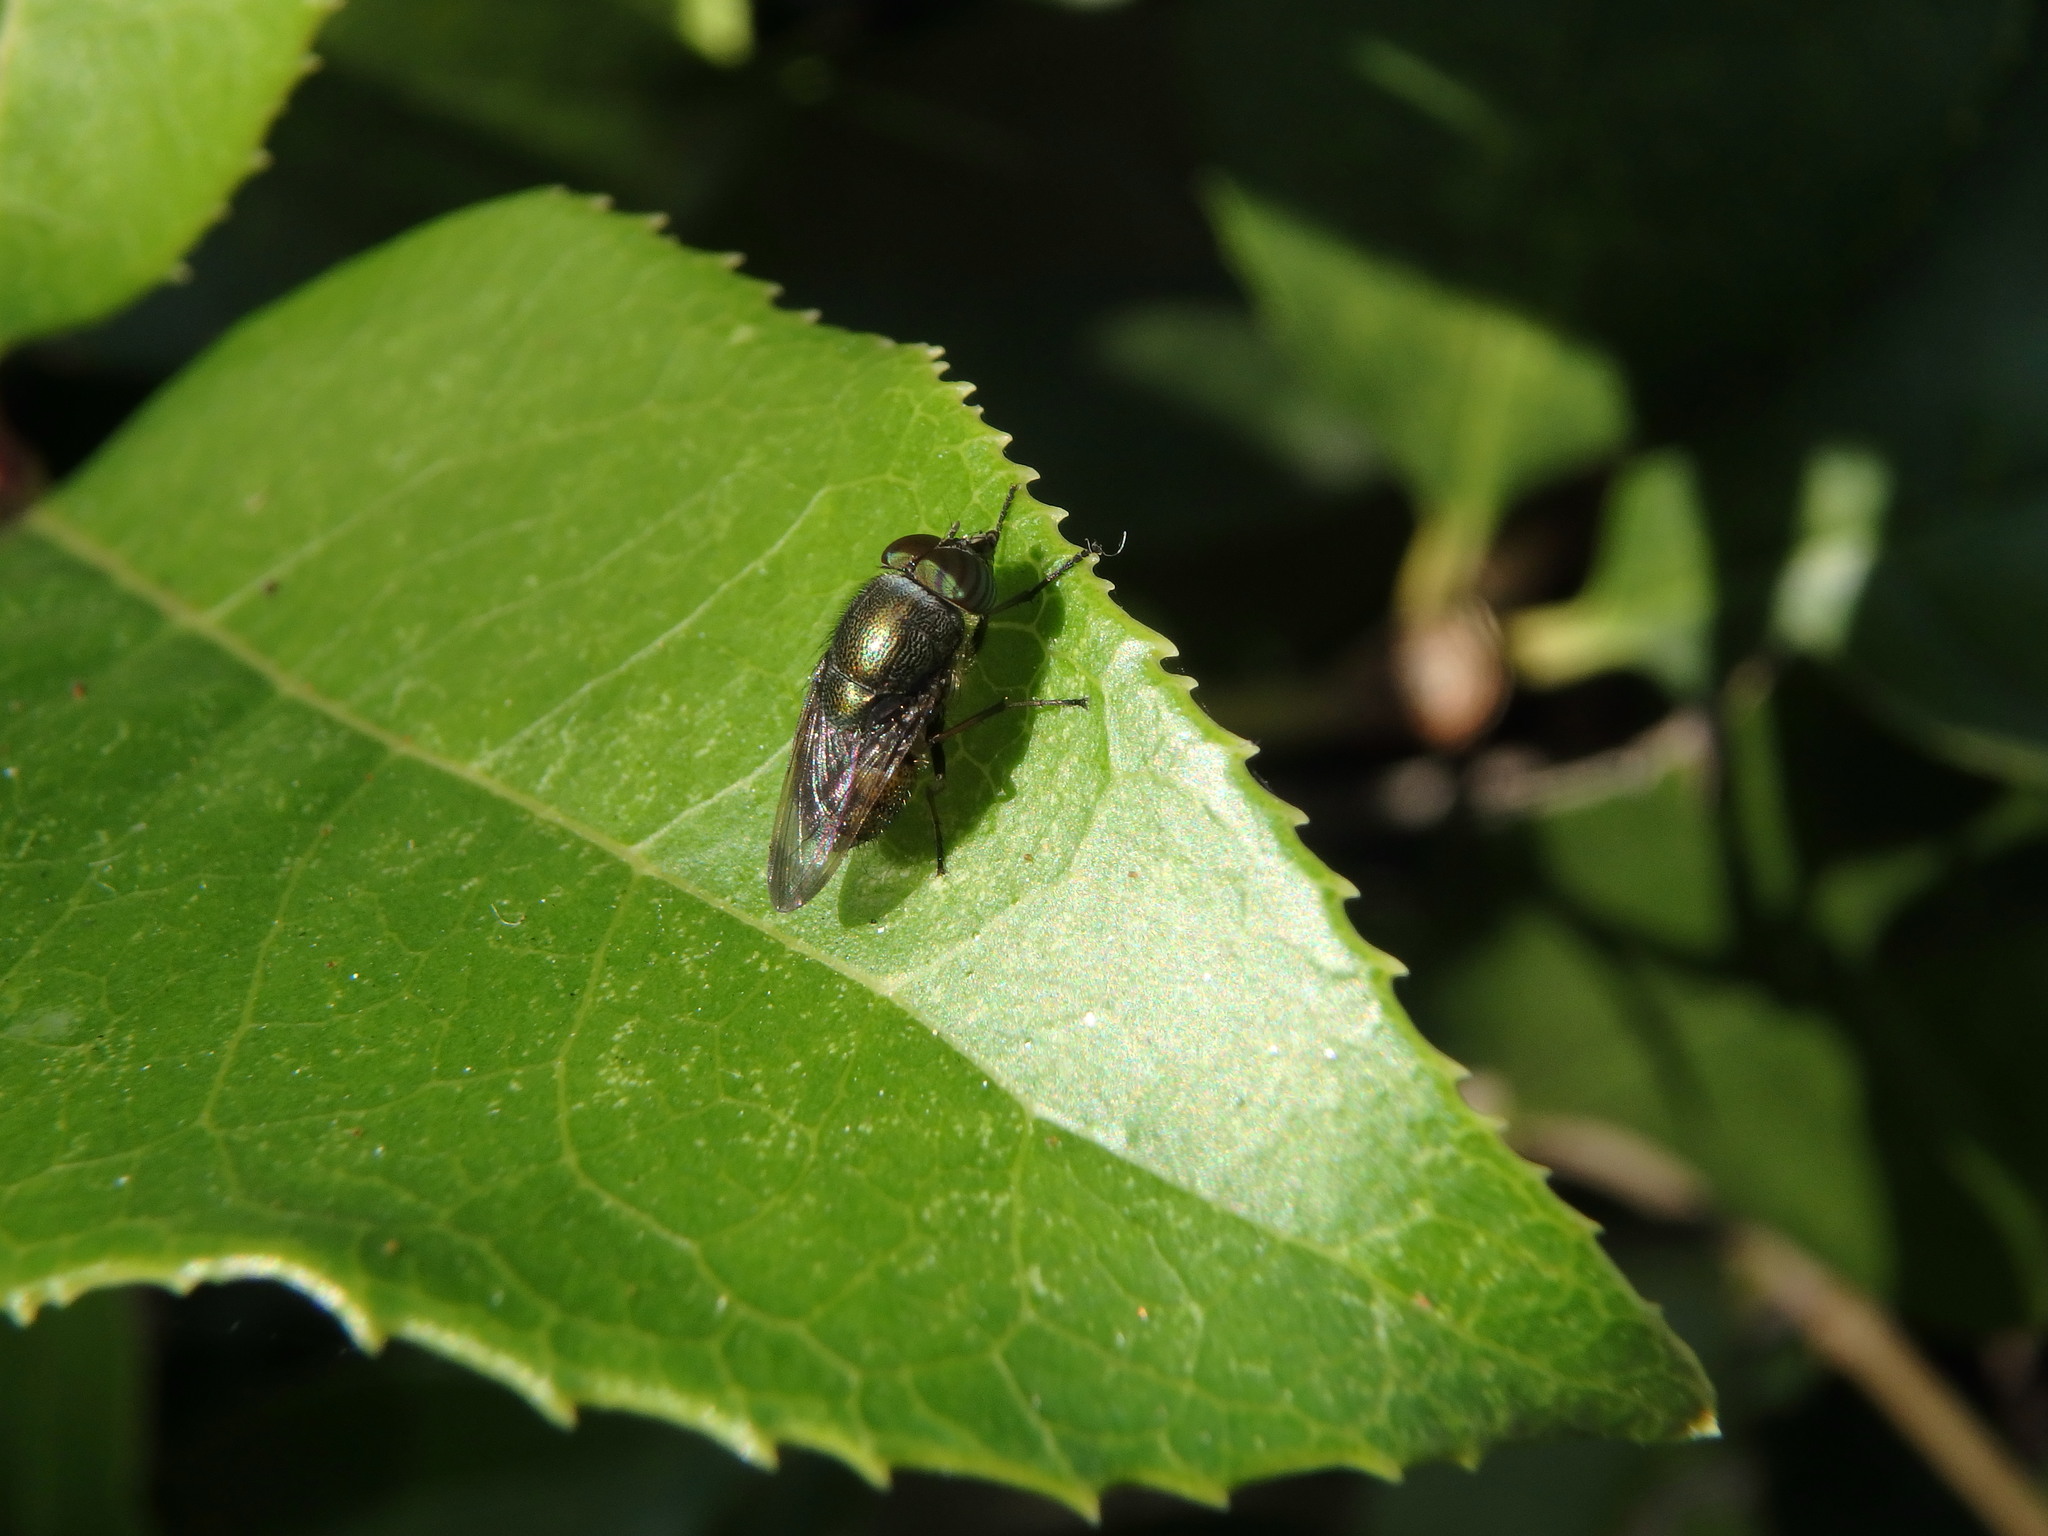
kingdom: Animalia
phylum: Arthropoda
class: Insecta
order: Diptera
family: Calliphoridae
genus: Rhinia
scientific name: Rhinia obsoleta
